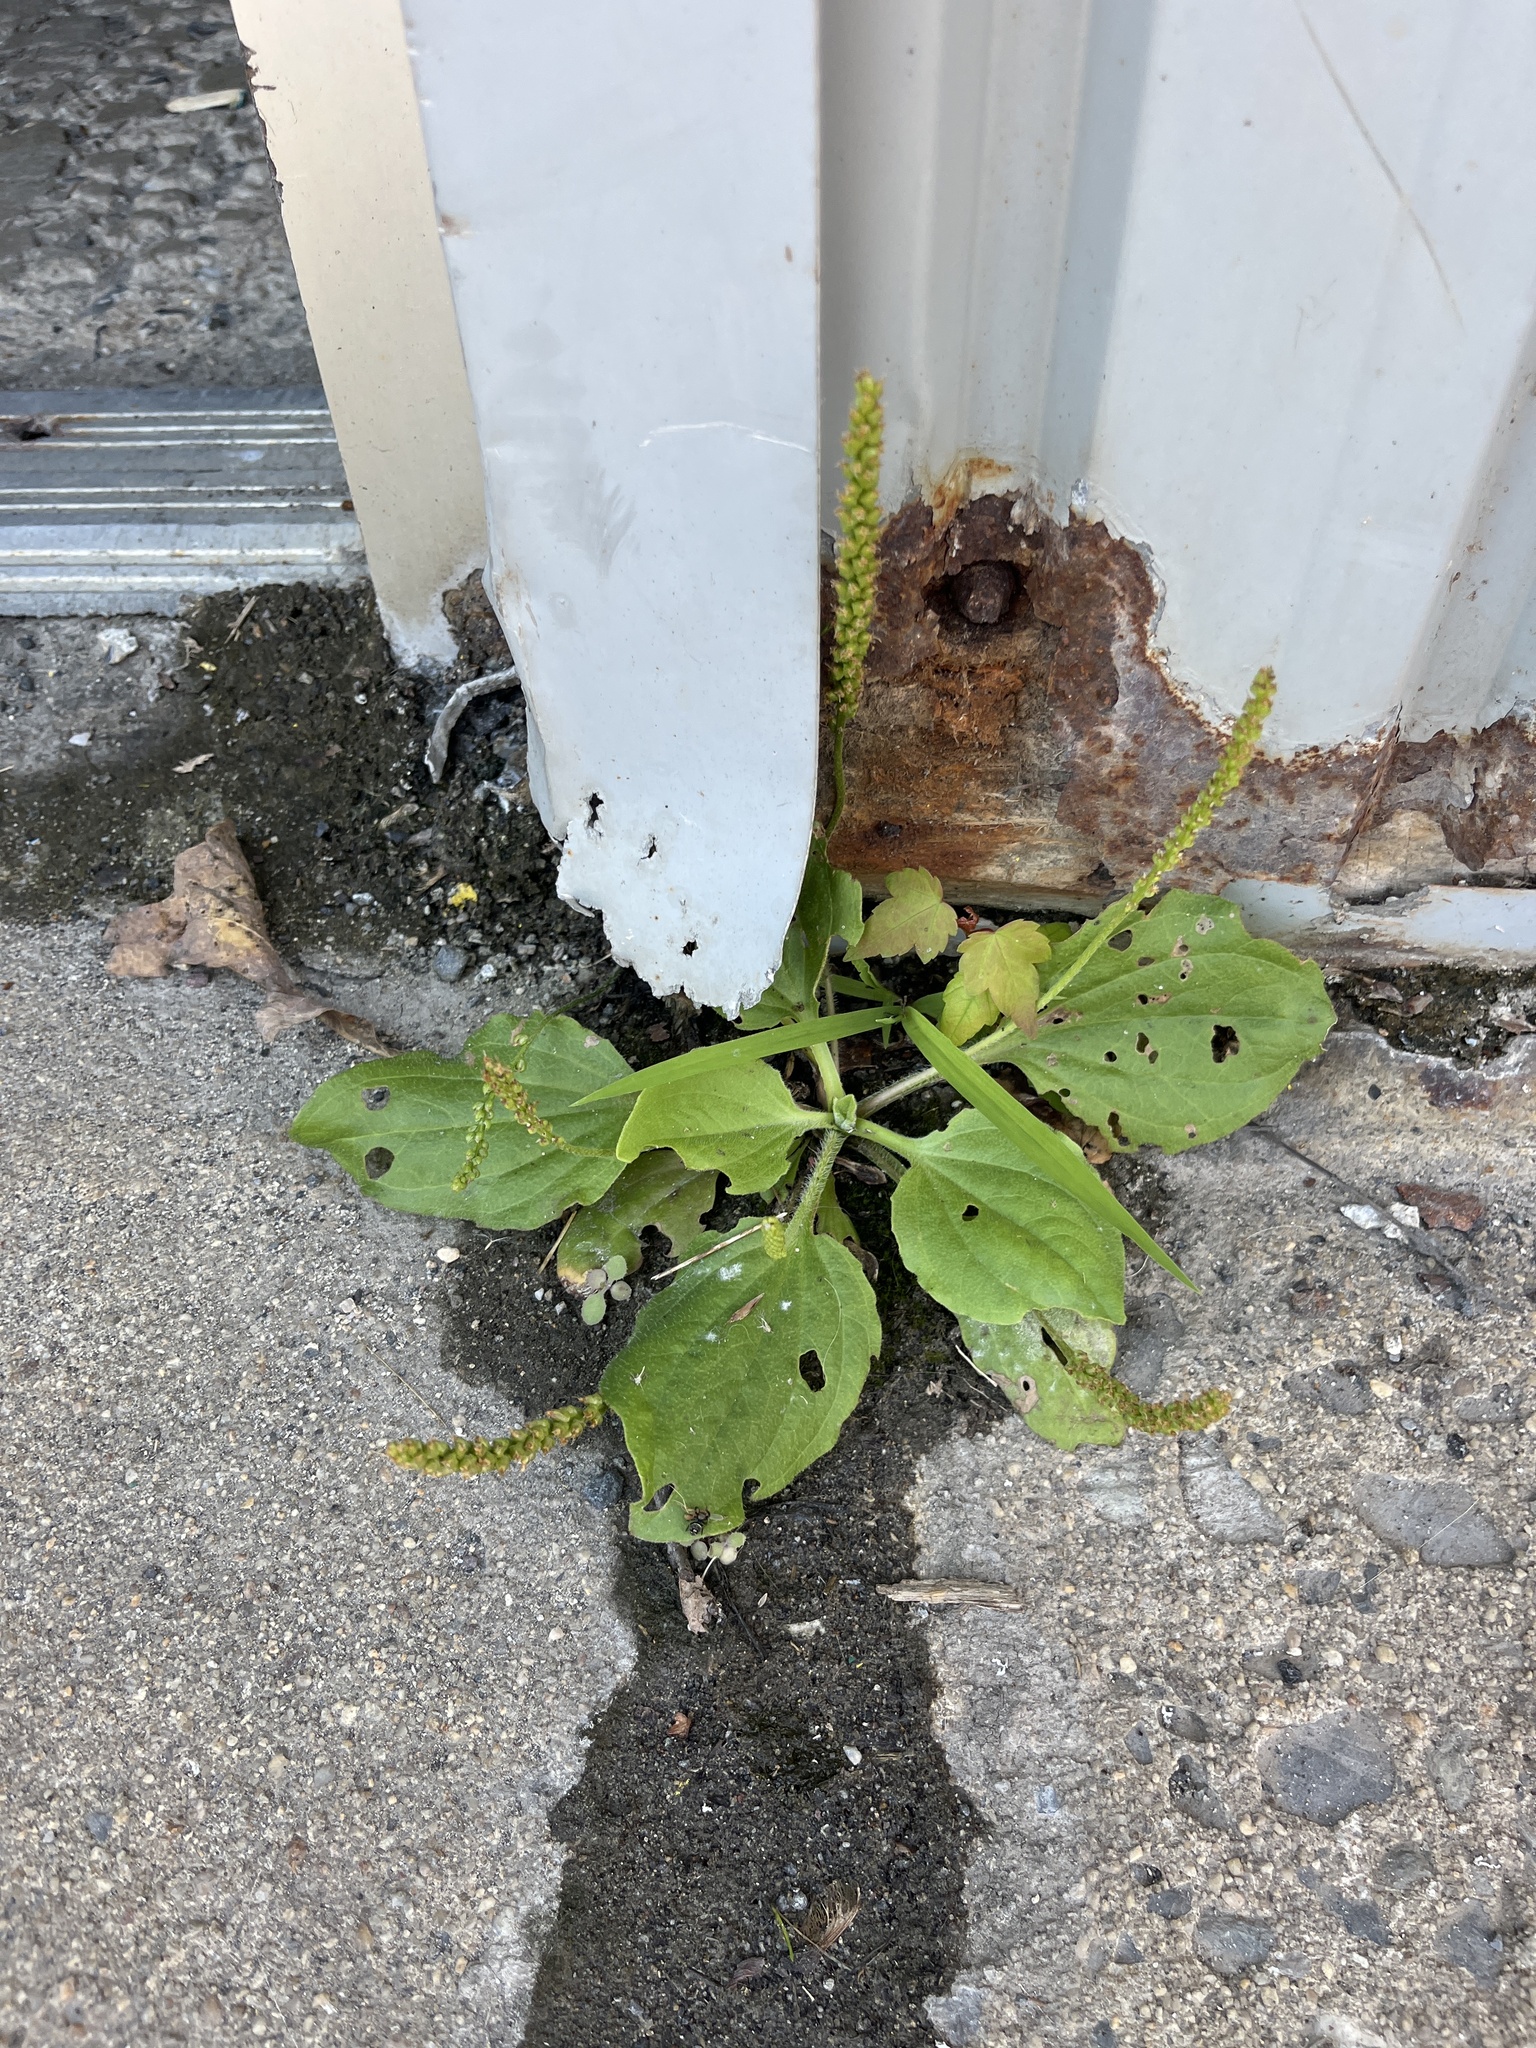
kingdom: Plantae
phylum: Tracheophyta
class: Magnoliopsida
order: Lamiales
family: Plantaginaceae
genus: Plantago
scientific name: Plantago major
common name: Common plantain
